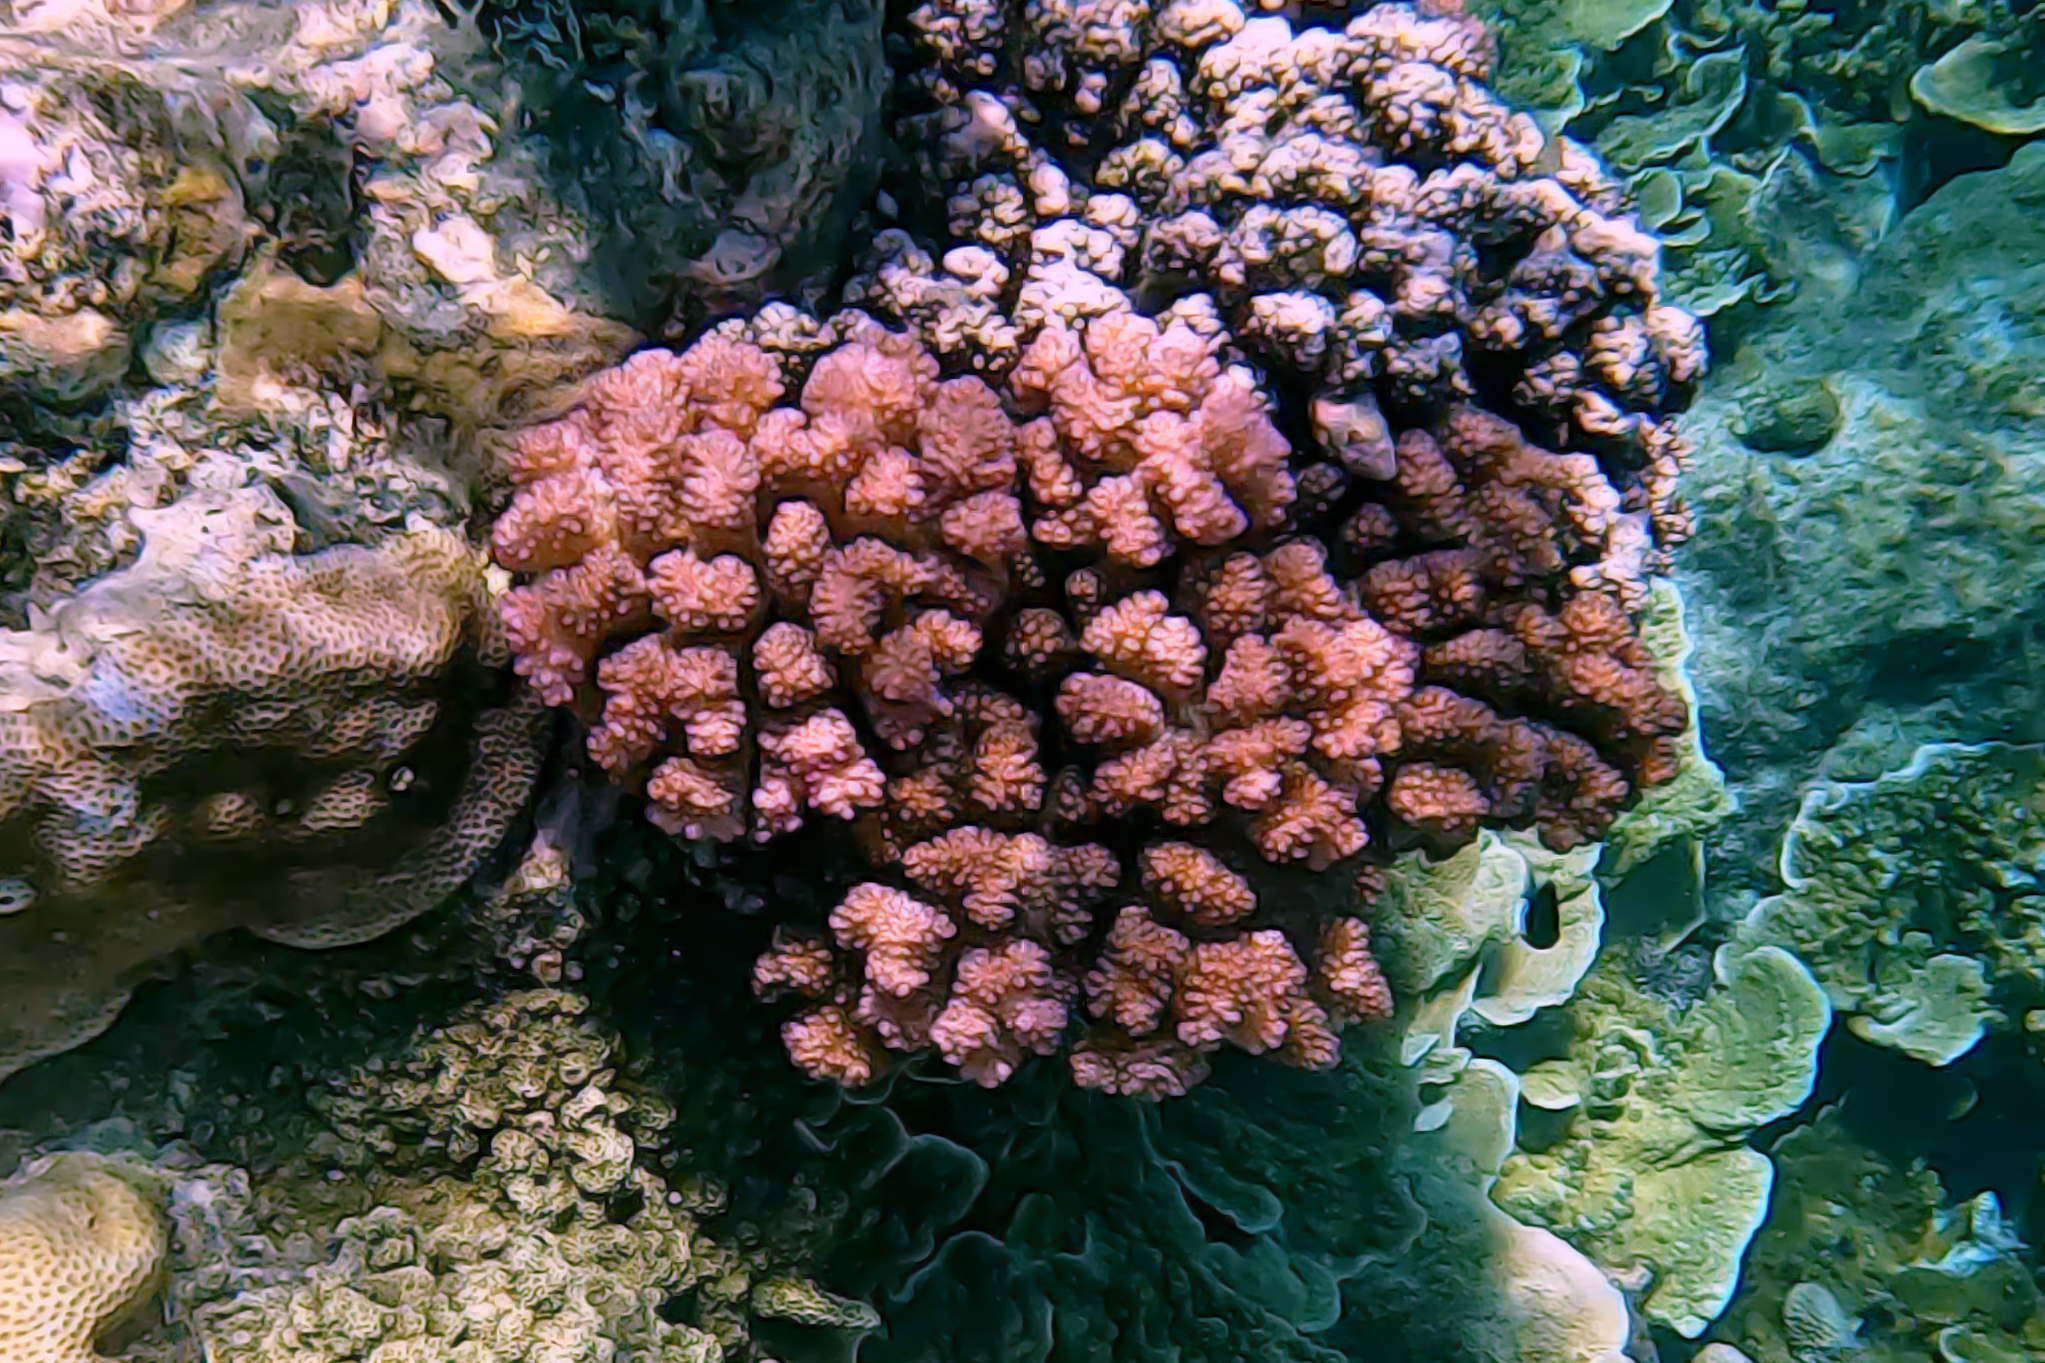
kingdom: Animalia
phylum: Cnidaria
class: Anthozoa
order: Scleractinia
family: Pocilloporidae
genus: Pocillopora
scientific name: Pocillopora verrucosa
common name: Cauliflower coral
